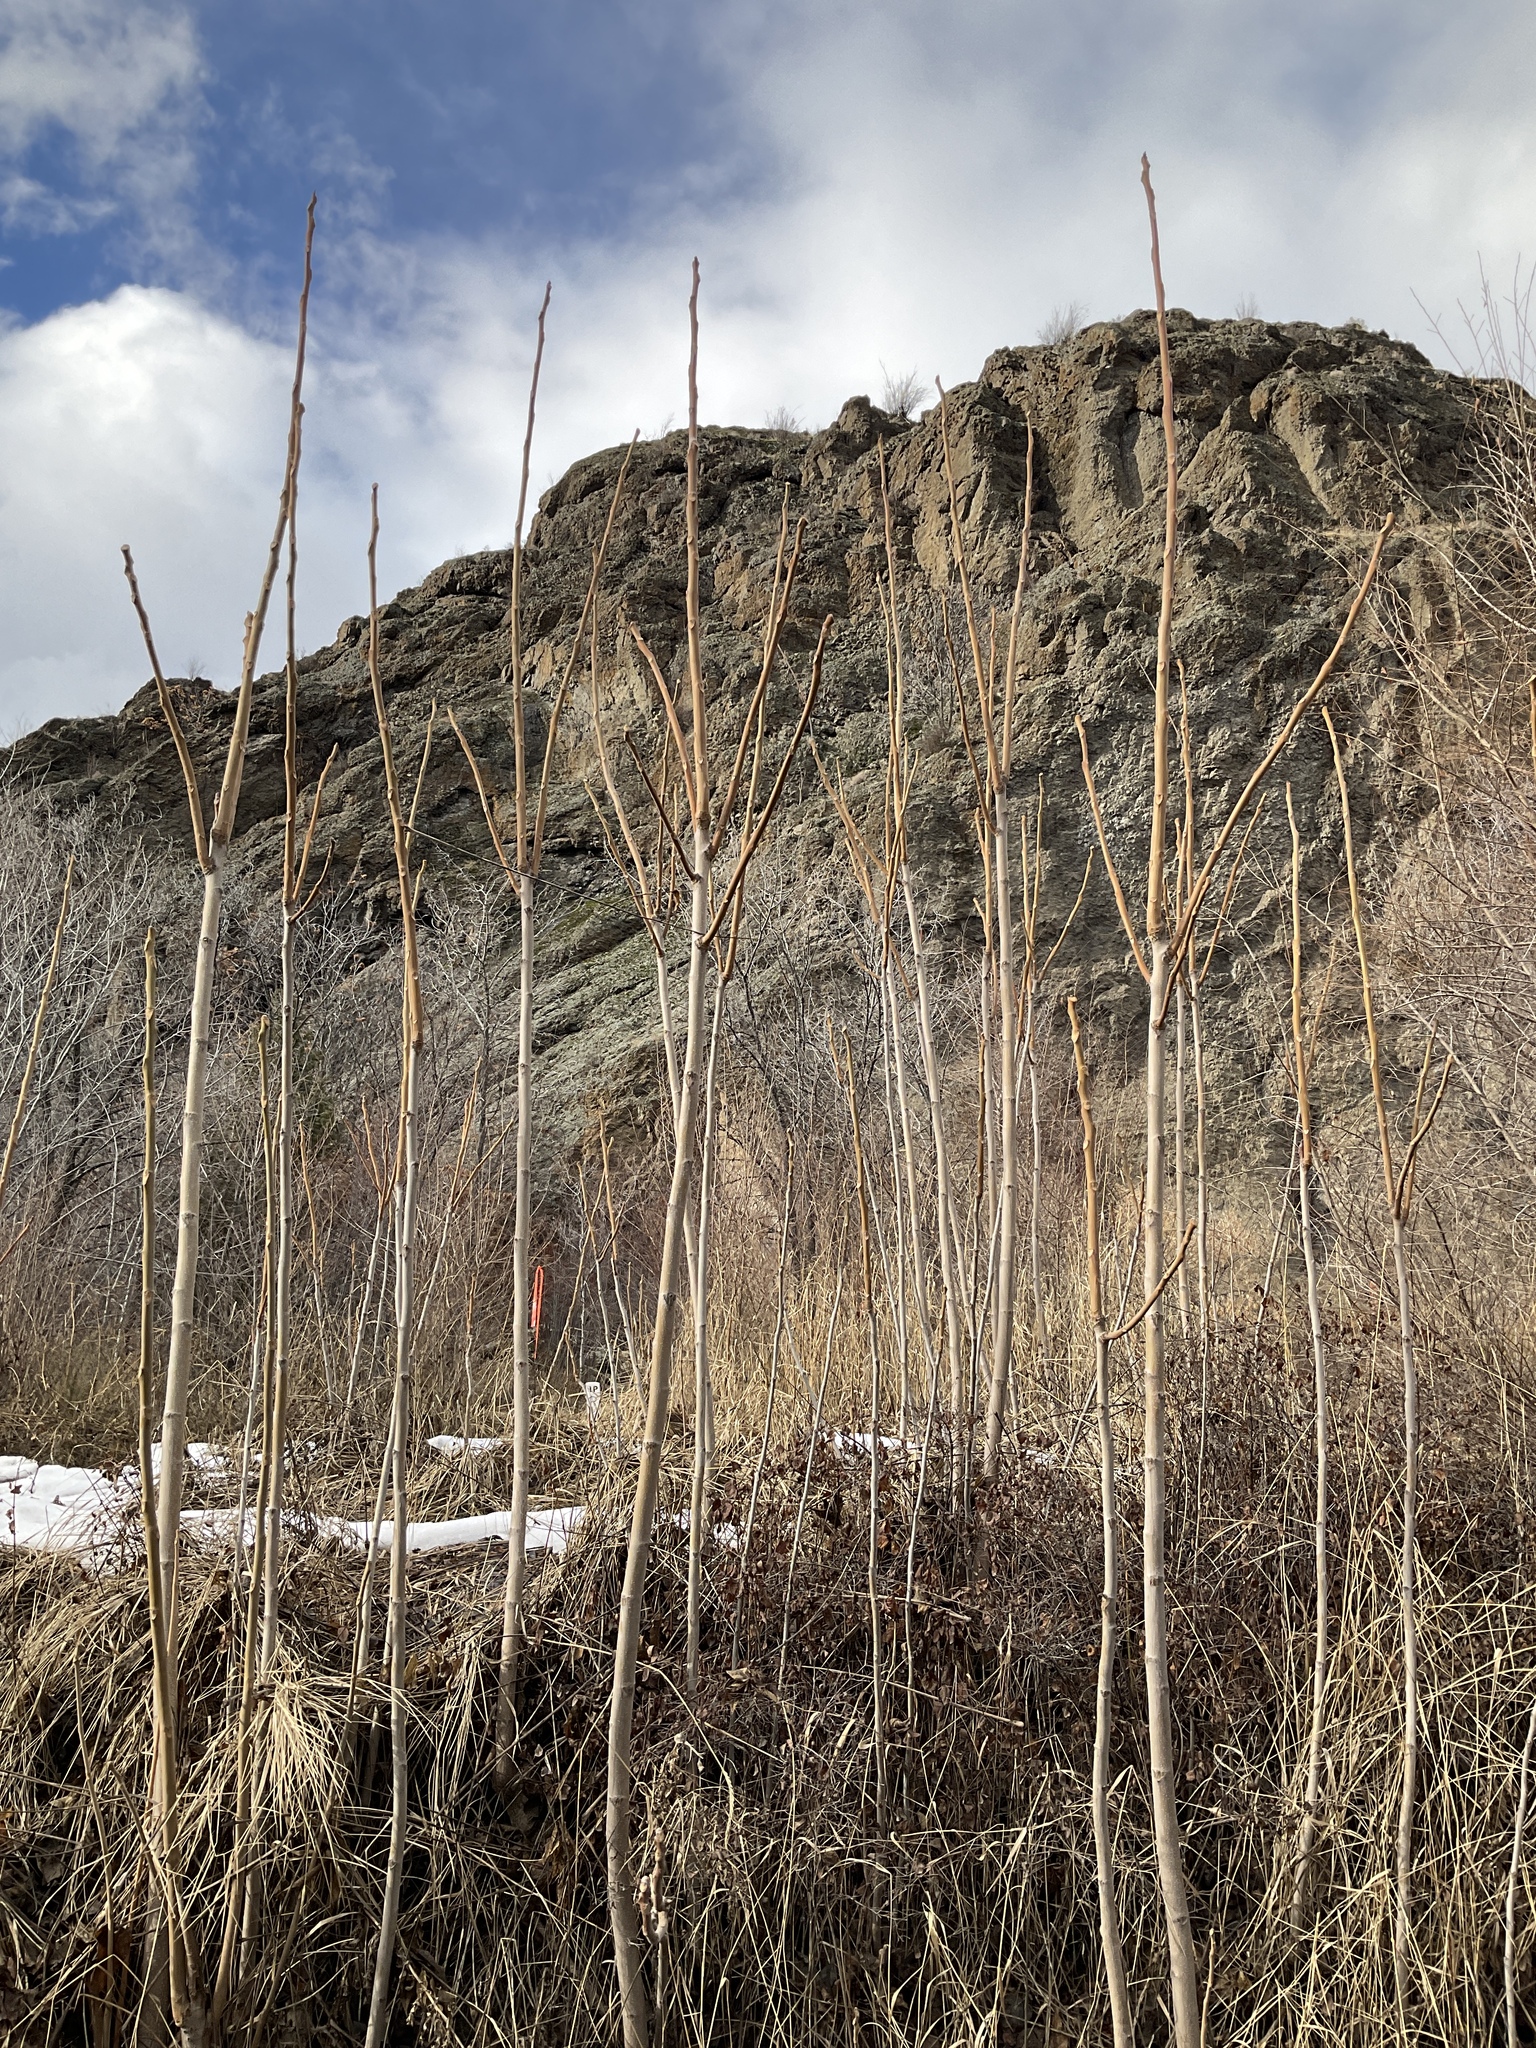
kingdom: Plantae
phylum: Tracheophyta
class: Magnoliopsida
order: Sapindales
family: Simaroubaceae
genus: Ailanthus
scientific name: Ailanthus altissima
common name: Tree-of-heaven
